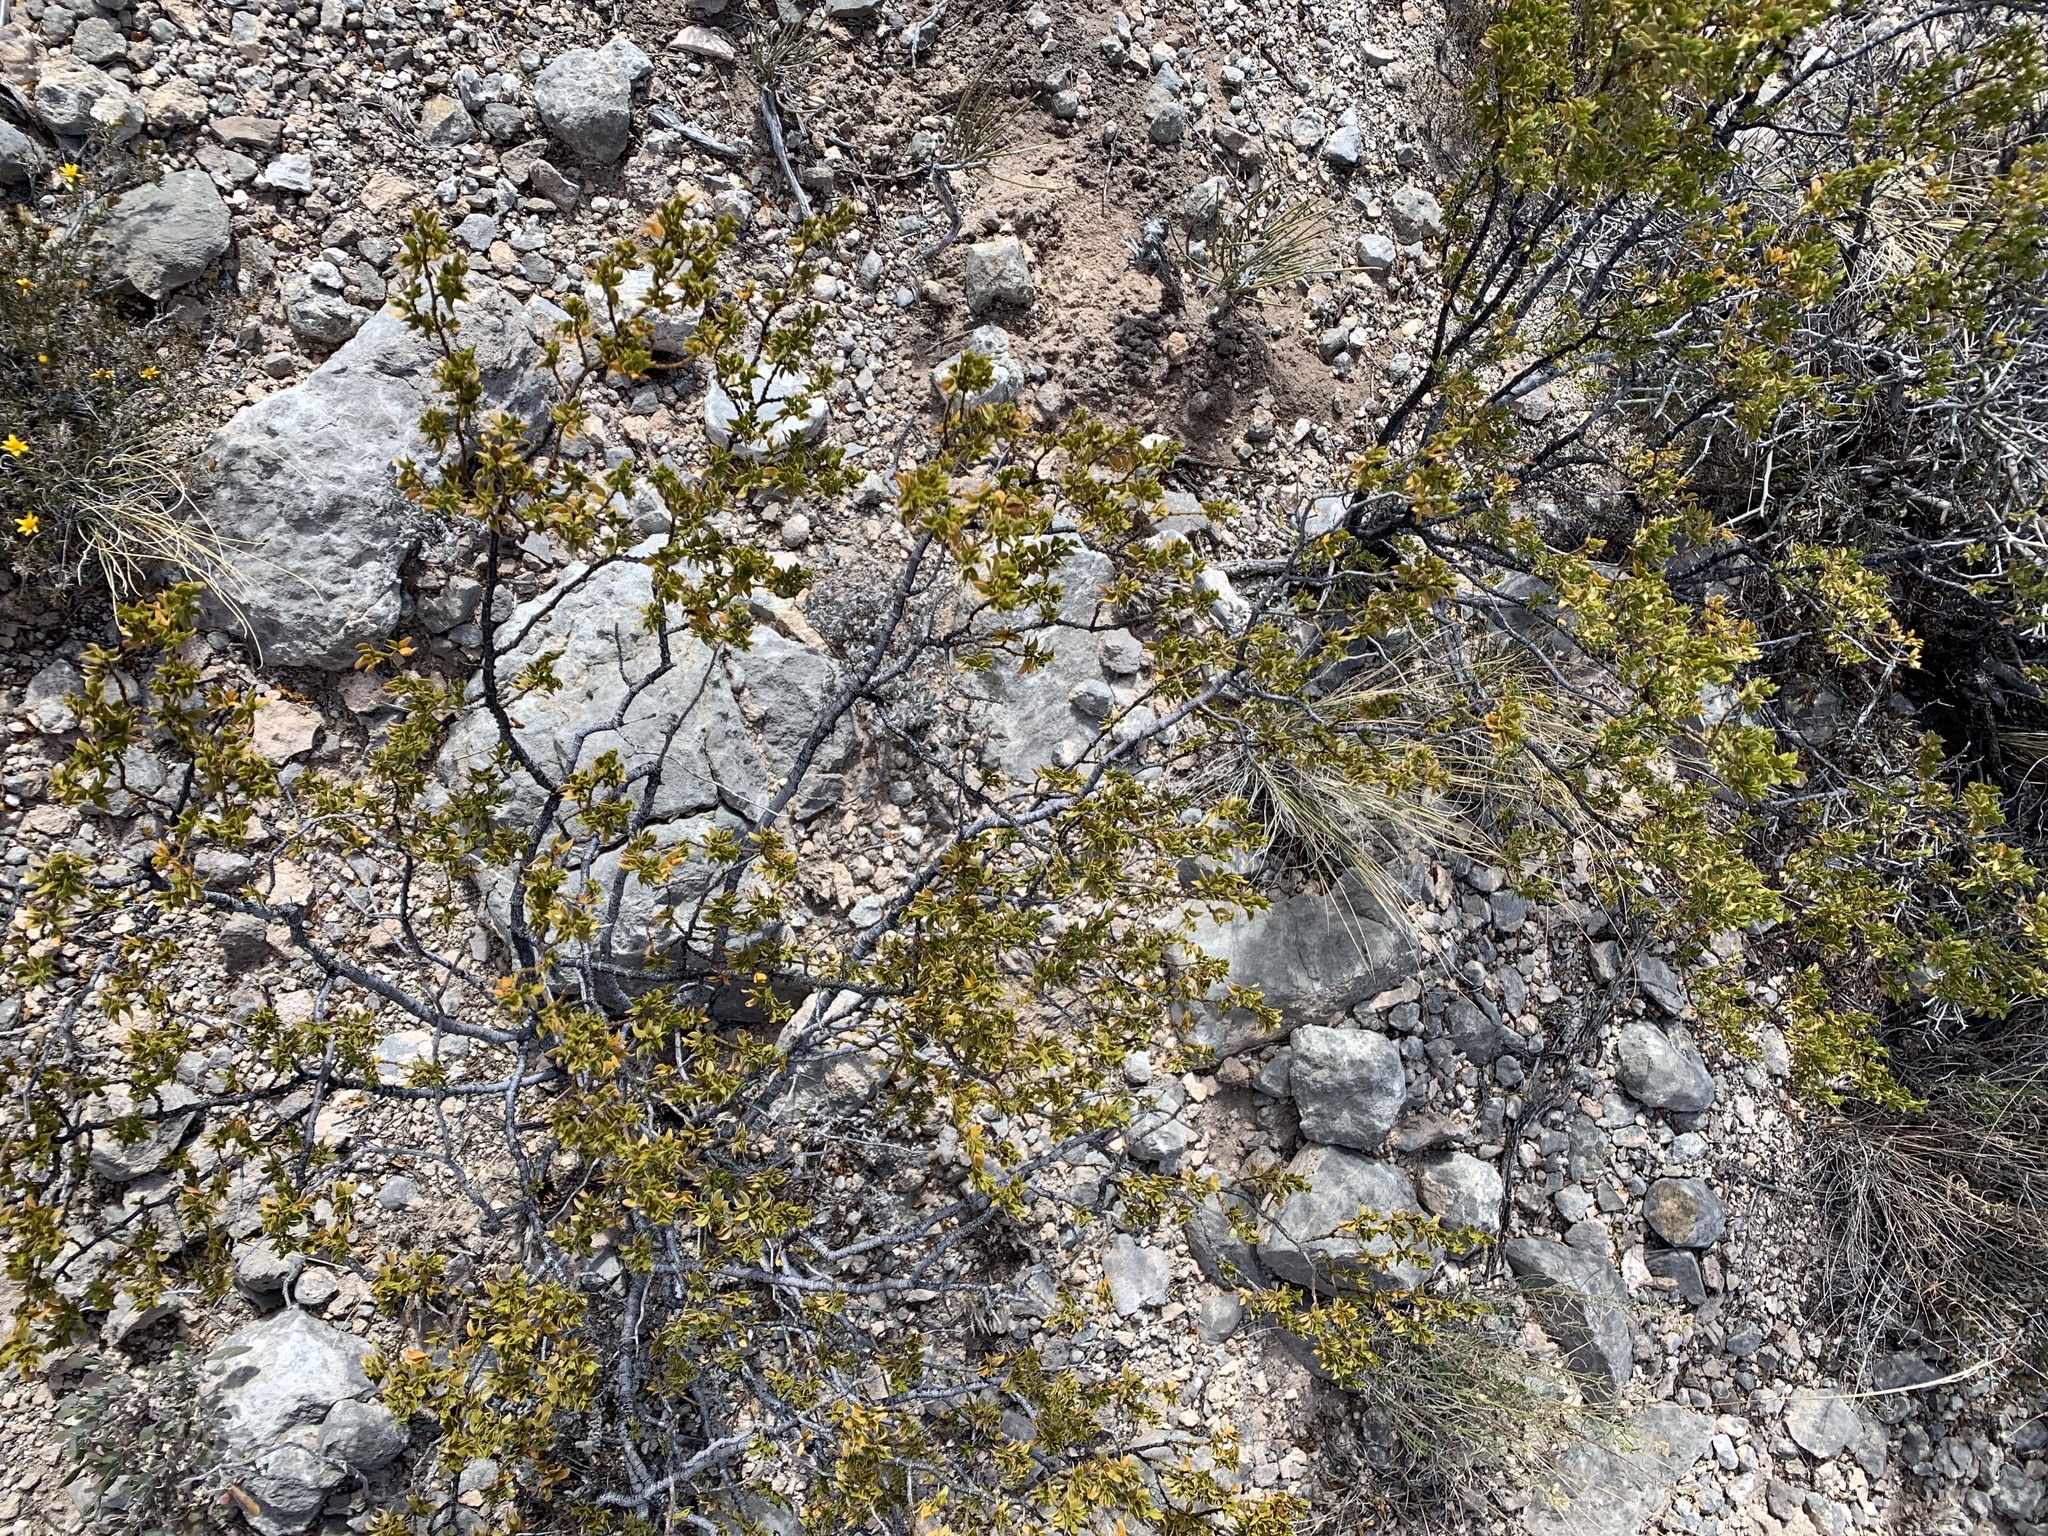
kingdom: Plantae
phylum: Tracheophyta
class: Magnoliopsida
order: Zygophyllales
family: Zygophyllaceae
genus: Larrea
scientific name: Larrea tridentata
